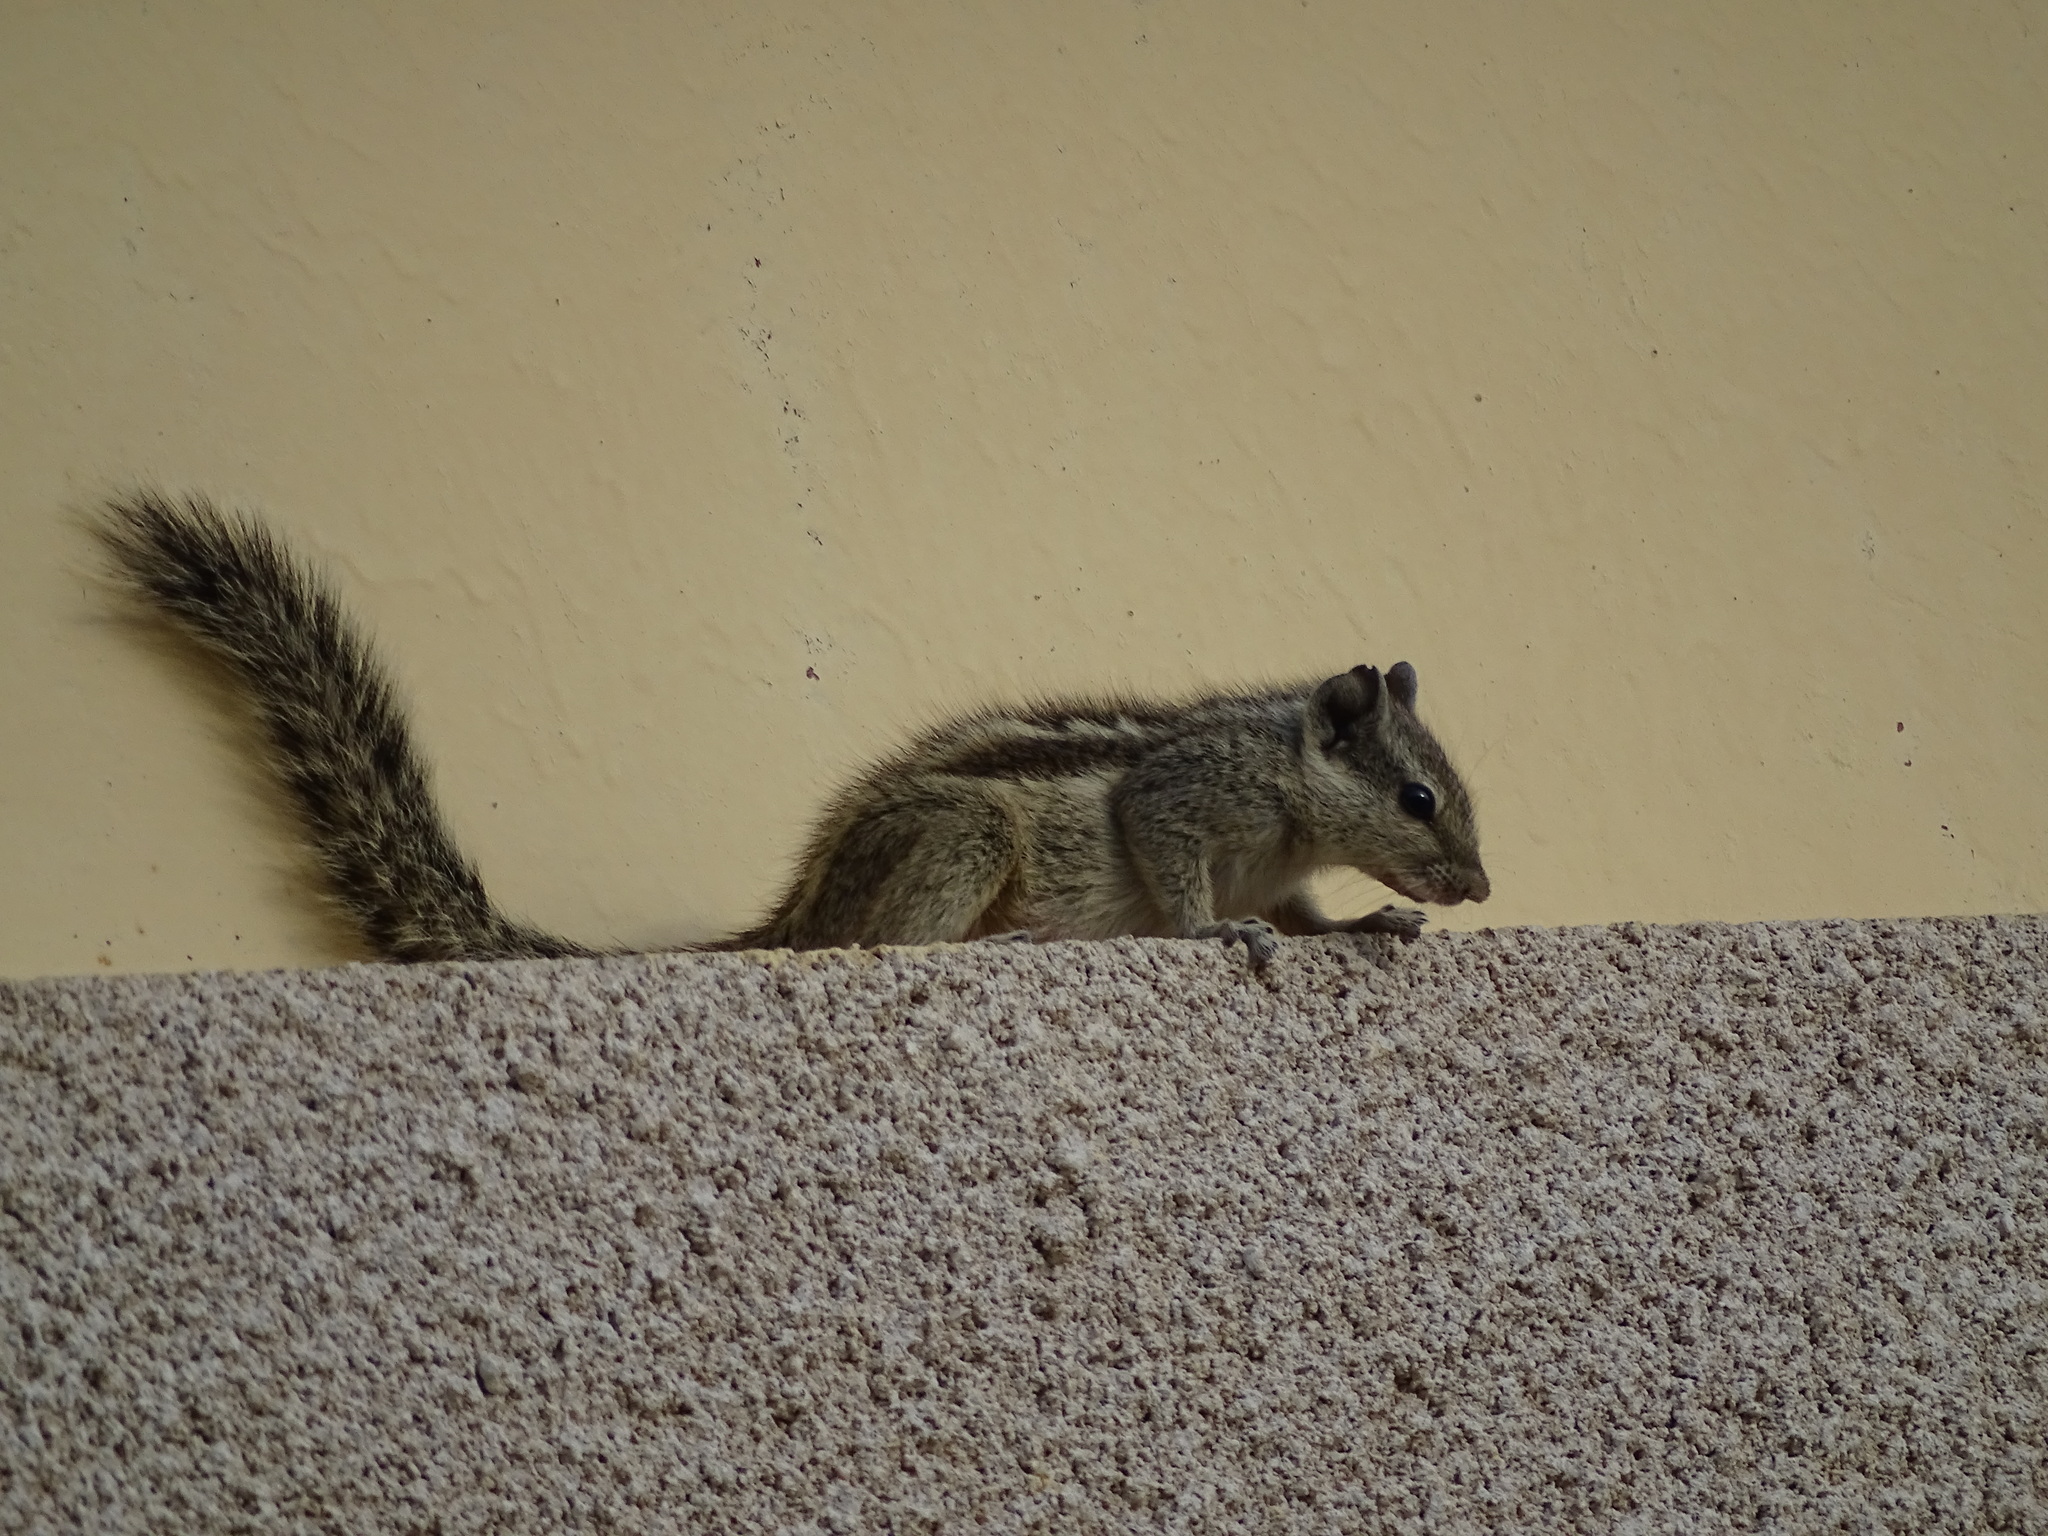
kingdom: Animalia
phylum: Chordata
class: Mammalia
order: Rodentia
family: Sciuridae
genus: Funambulus
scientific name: Funambulus pennantii
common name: Northern palm squirrel
